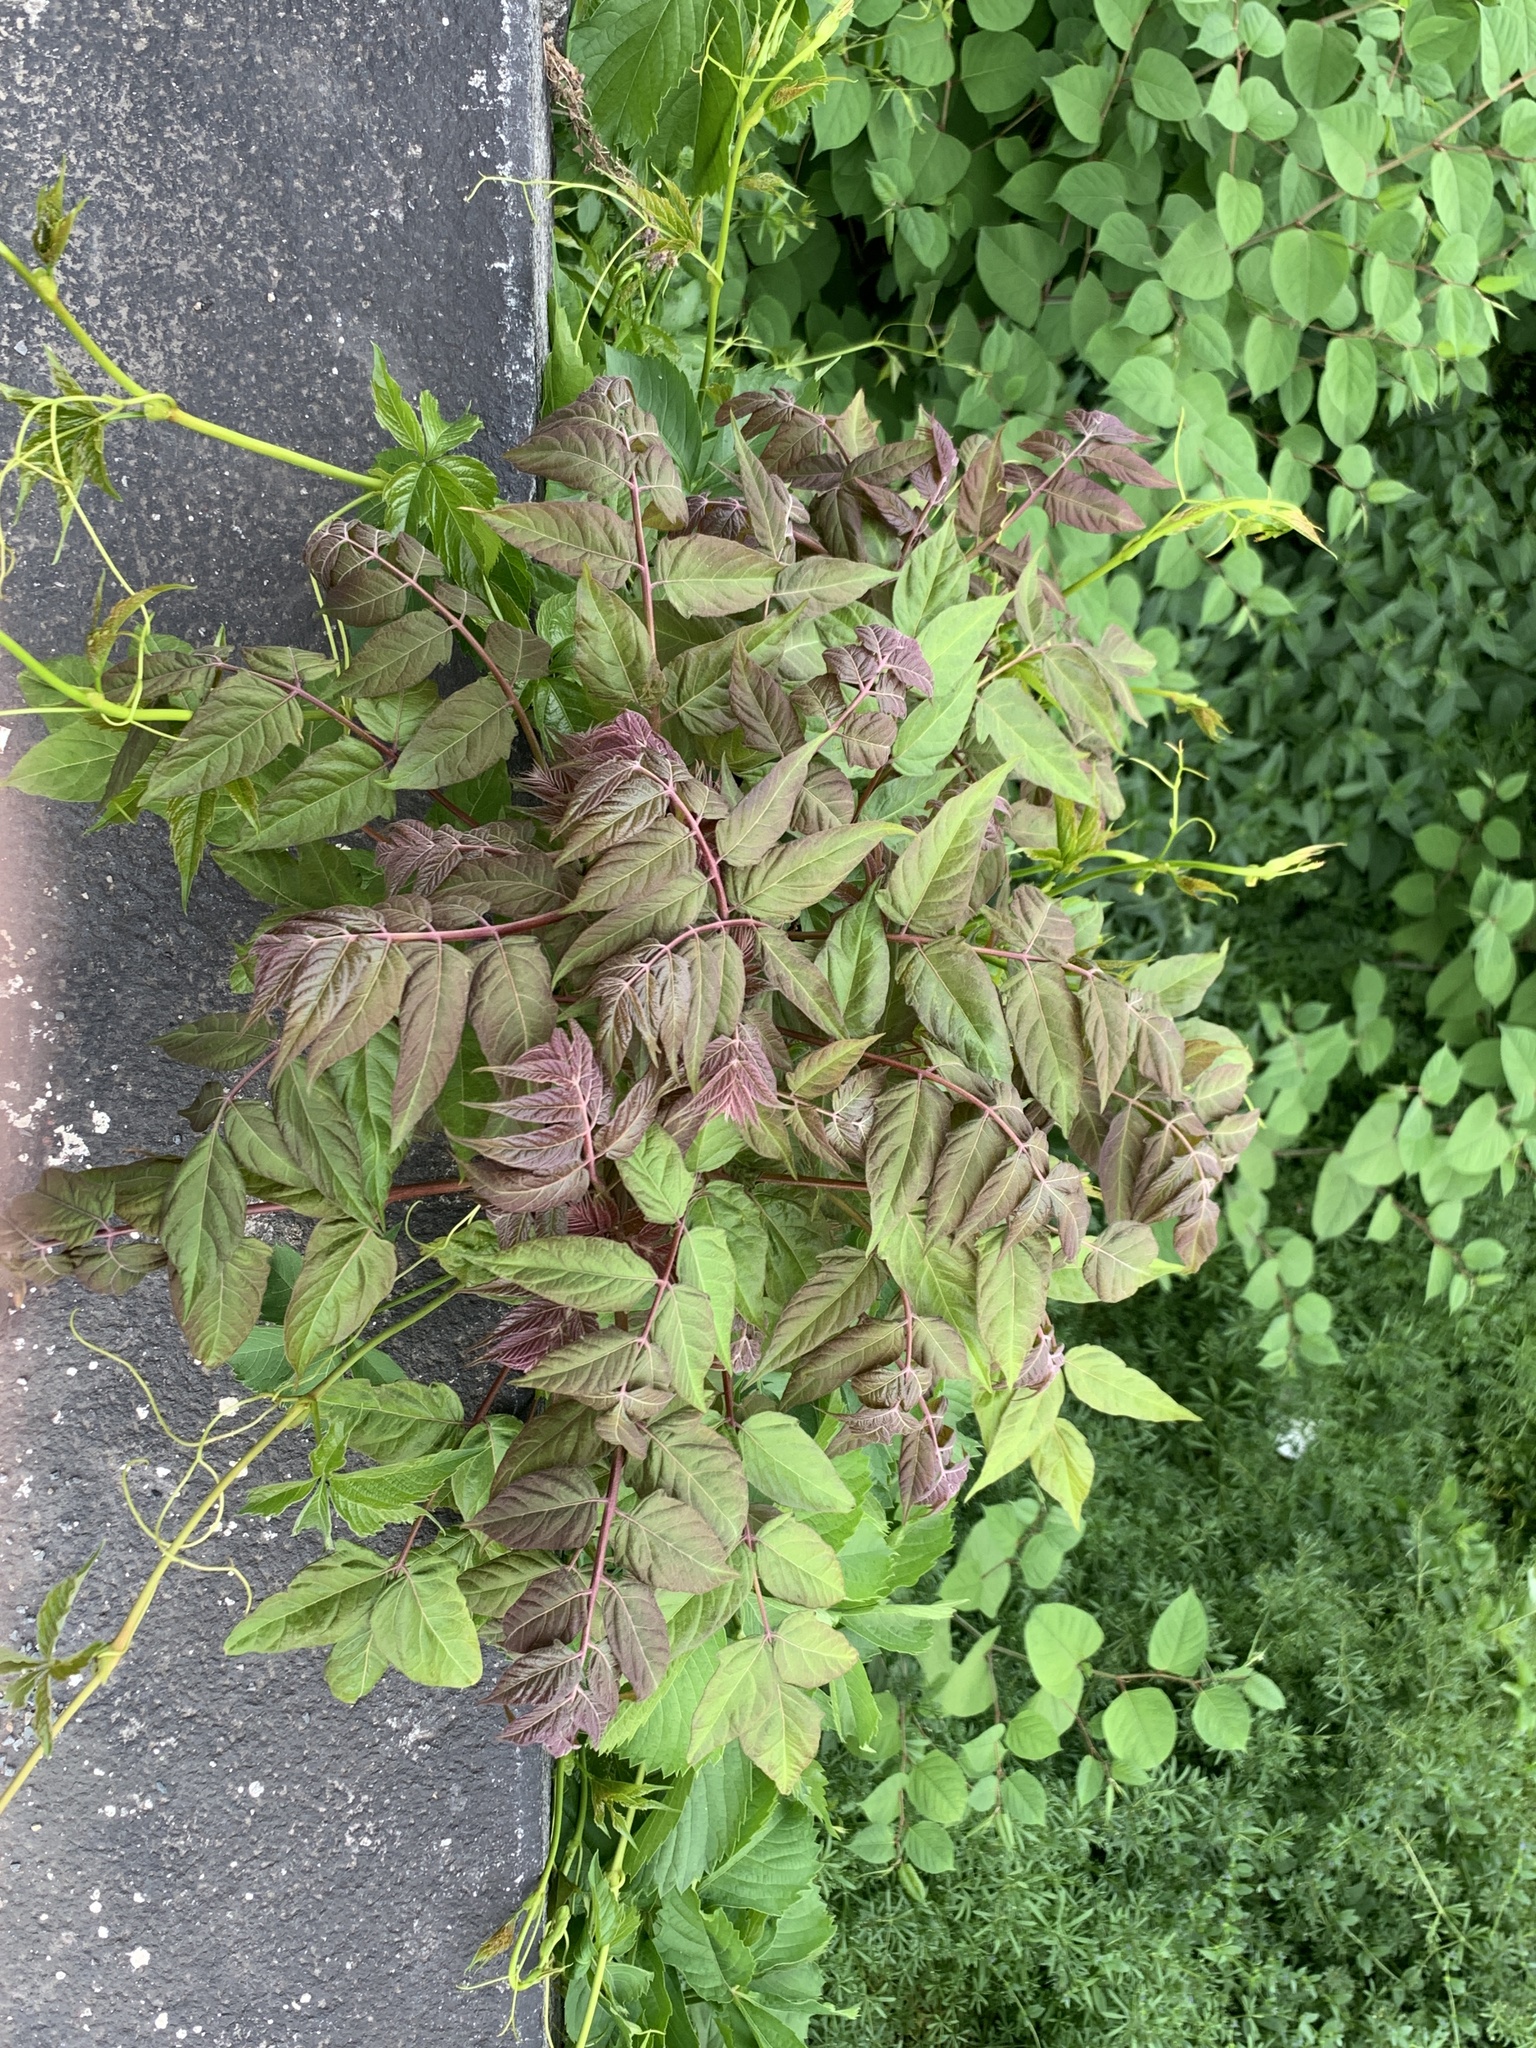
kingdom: Plantae
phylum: Tracheophyta
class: Magnoliopsida
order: Sapindales
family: Simaroubaceae
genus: Ailanthus
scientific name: Ailanthus altissima
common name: Tree-of-heaven
